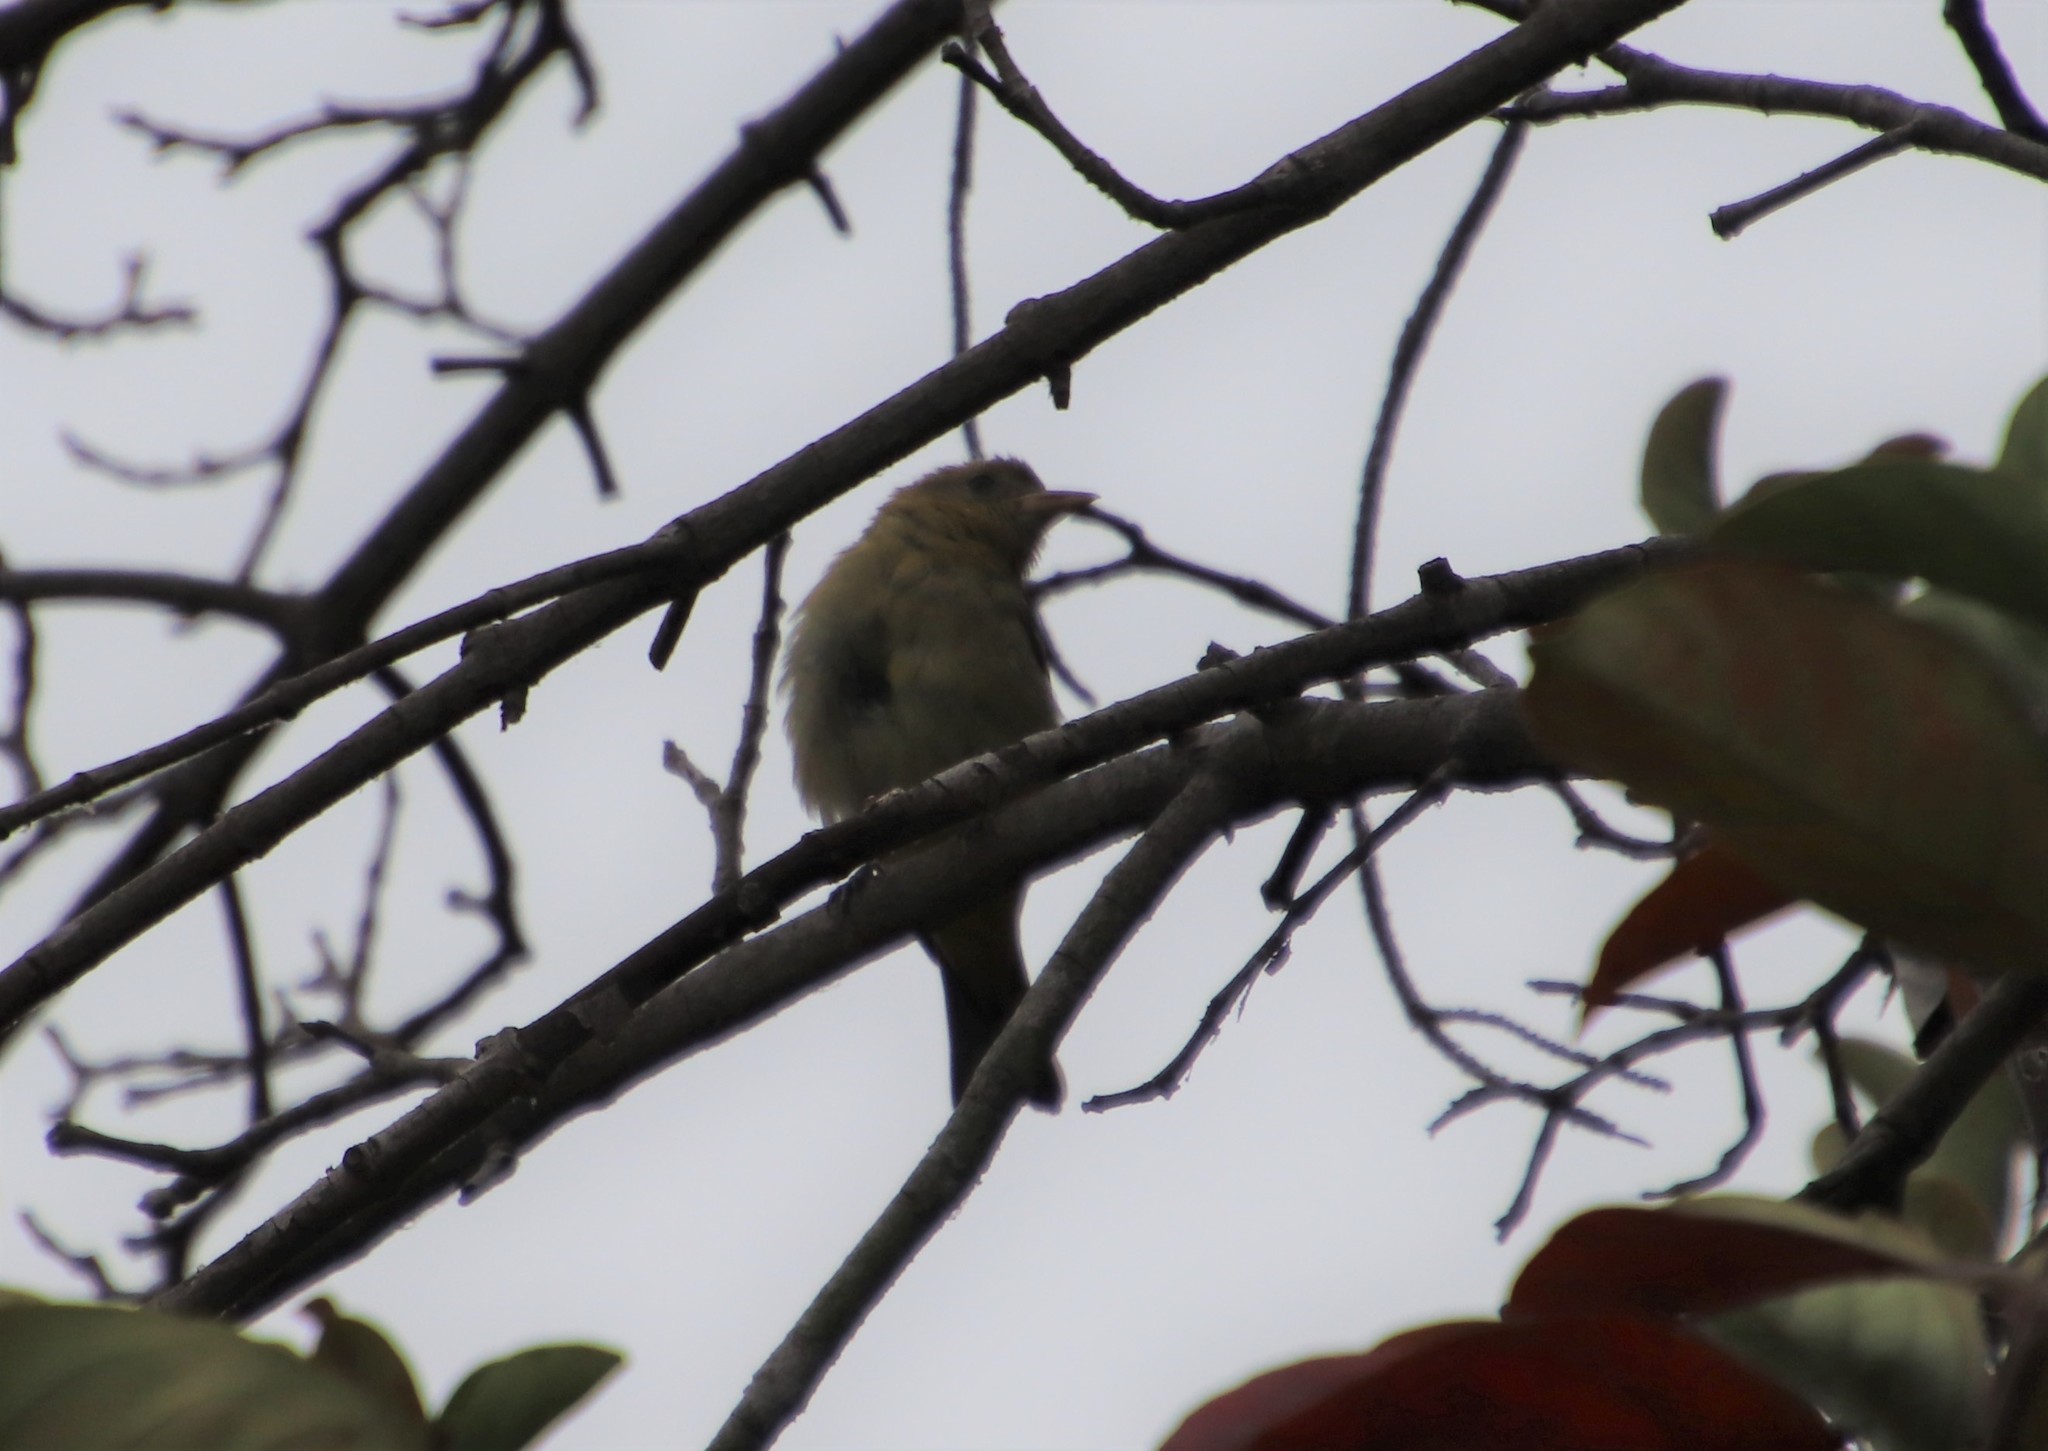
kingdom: Animalia
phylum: Chordata
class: Aves
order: Passeriformes
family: Cardinalidae
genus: Piranga
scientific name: Piranga ludoviciana
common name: Western tanager
